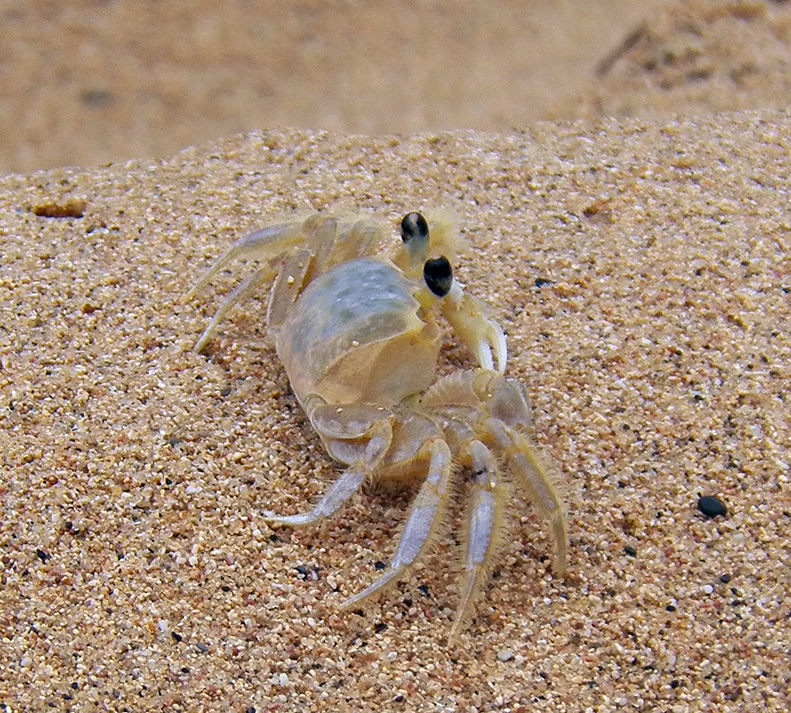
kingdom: Animalia
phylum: Arthropoda
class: Malacostraca
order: Decapoda
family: Ocypodidae
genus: Ocypode
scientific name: Ocypode quadrata
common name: Ghost crab
